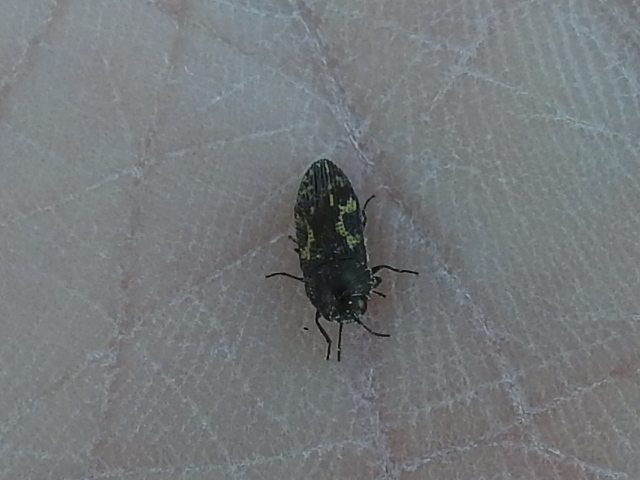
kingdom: Animalia
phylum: Arthropoda
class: Insecta
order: Coleoptera
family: Buprestidae
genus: Acmaeodera
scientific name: Acmaeodera neglecta
